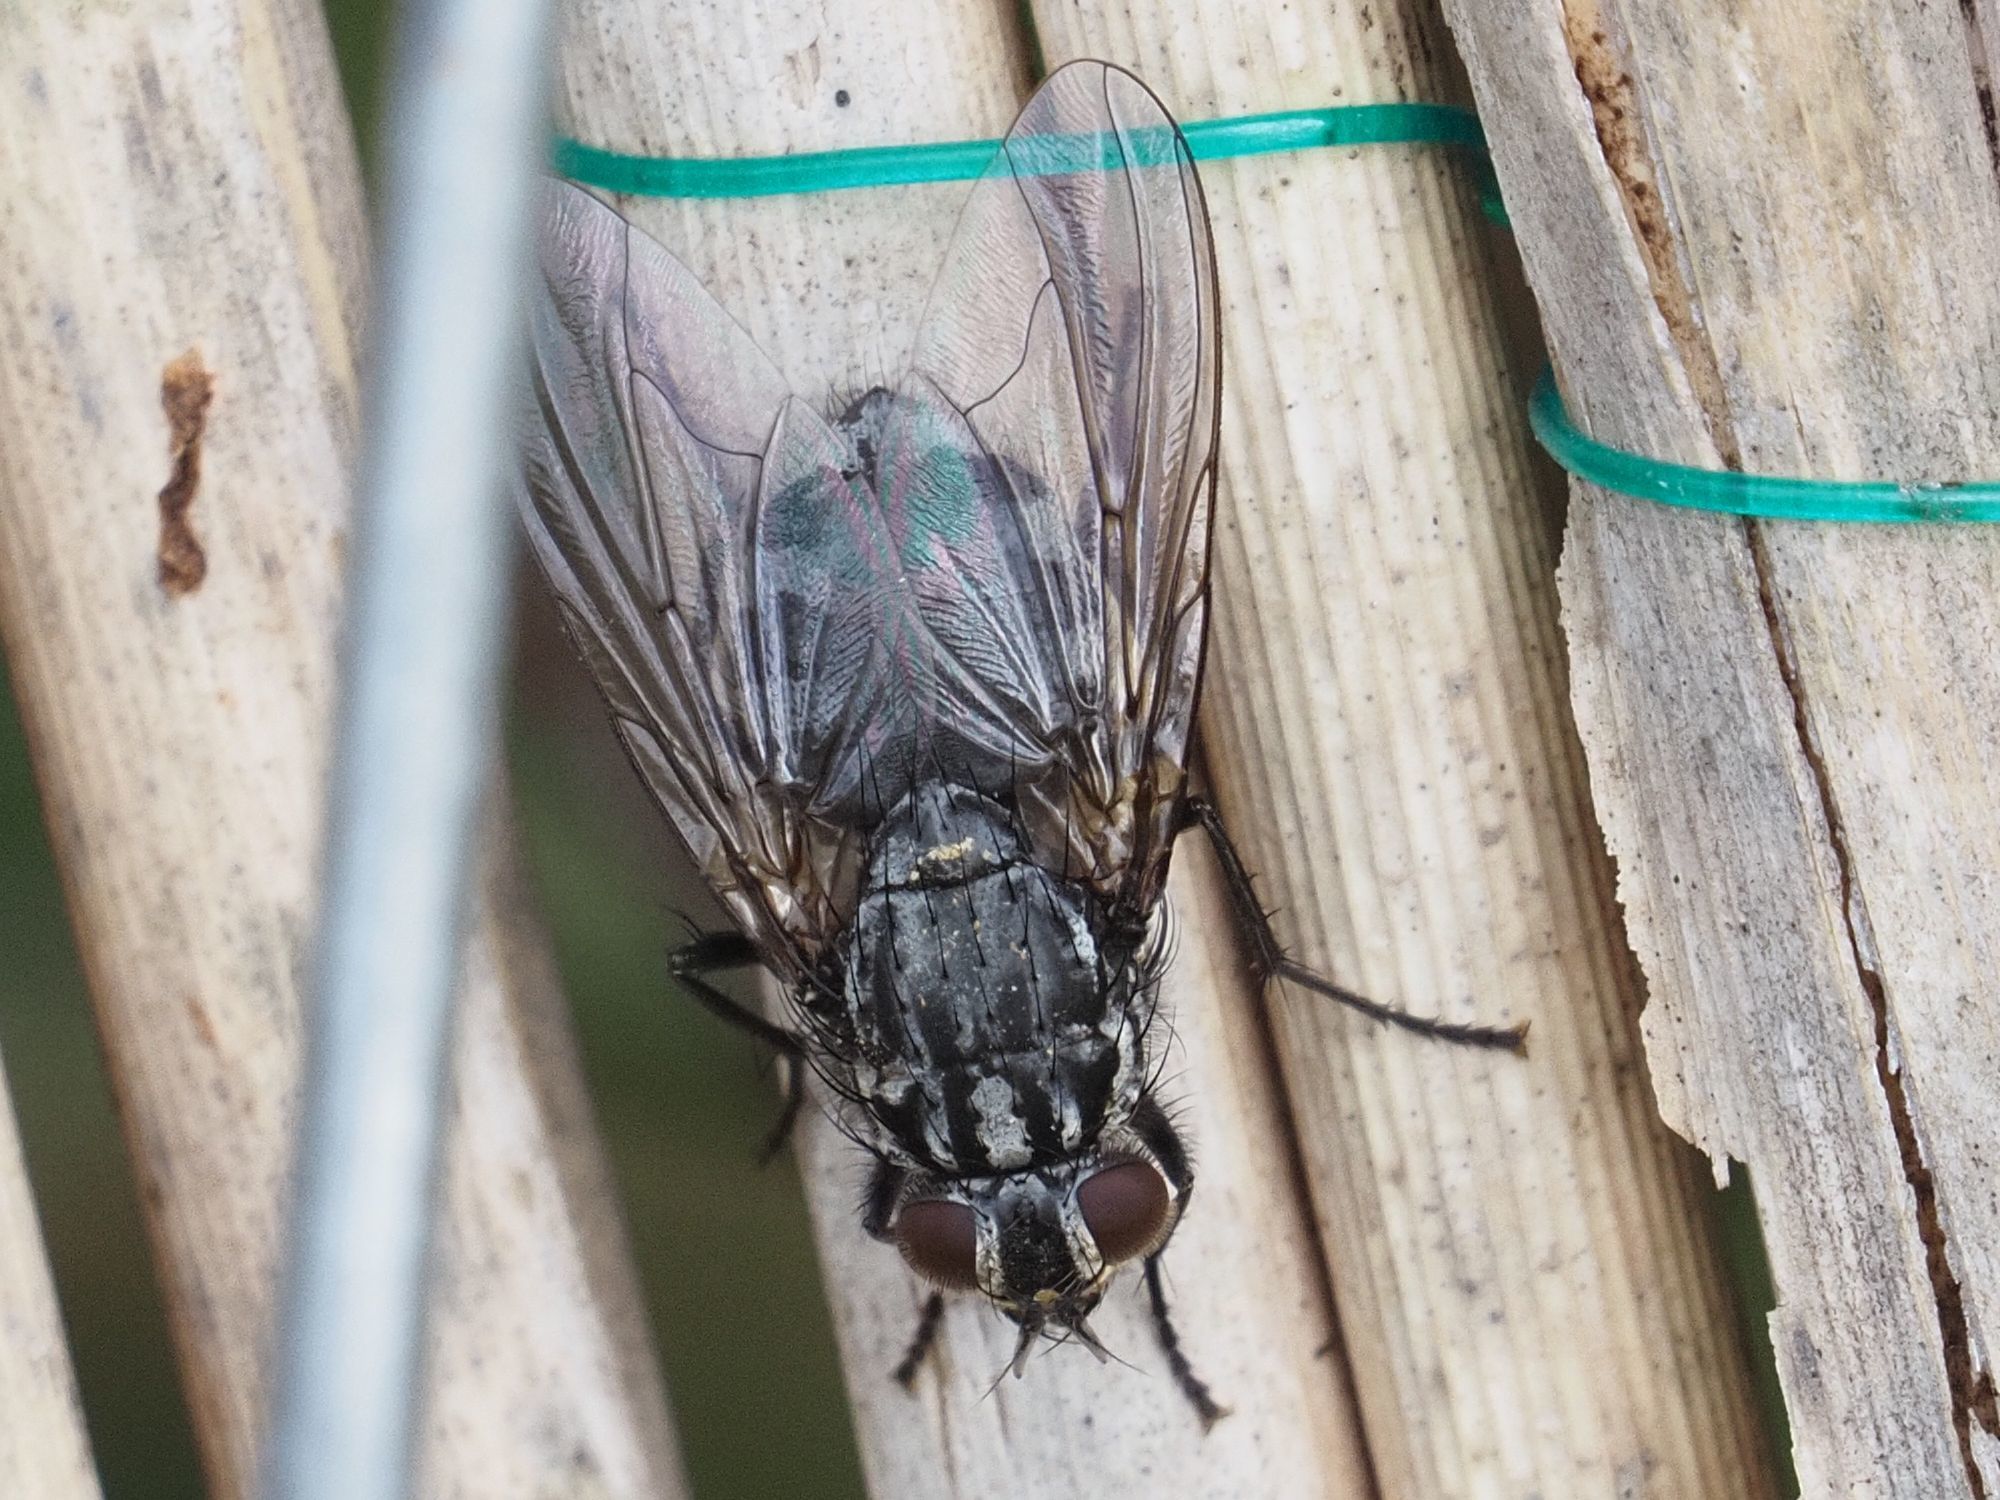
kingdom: Animalia
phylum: Arthropoda
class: Insecta
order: Diptera
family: Muscidae
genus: Polietes
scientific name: Polietes lardaria
